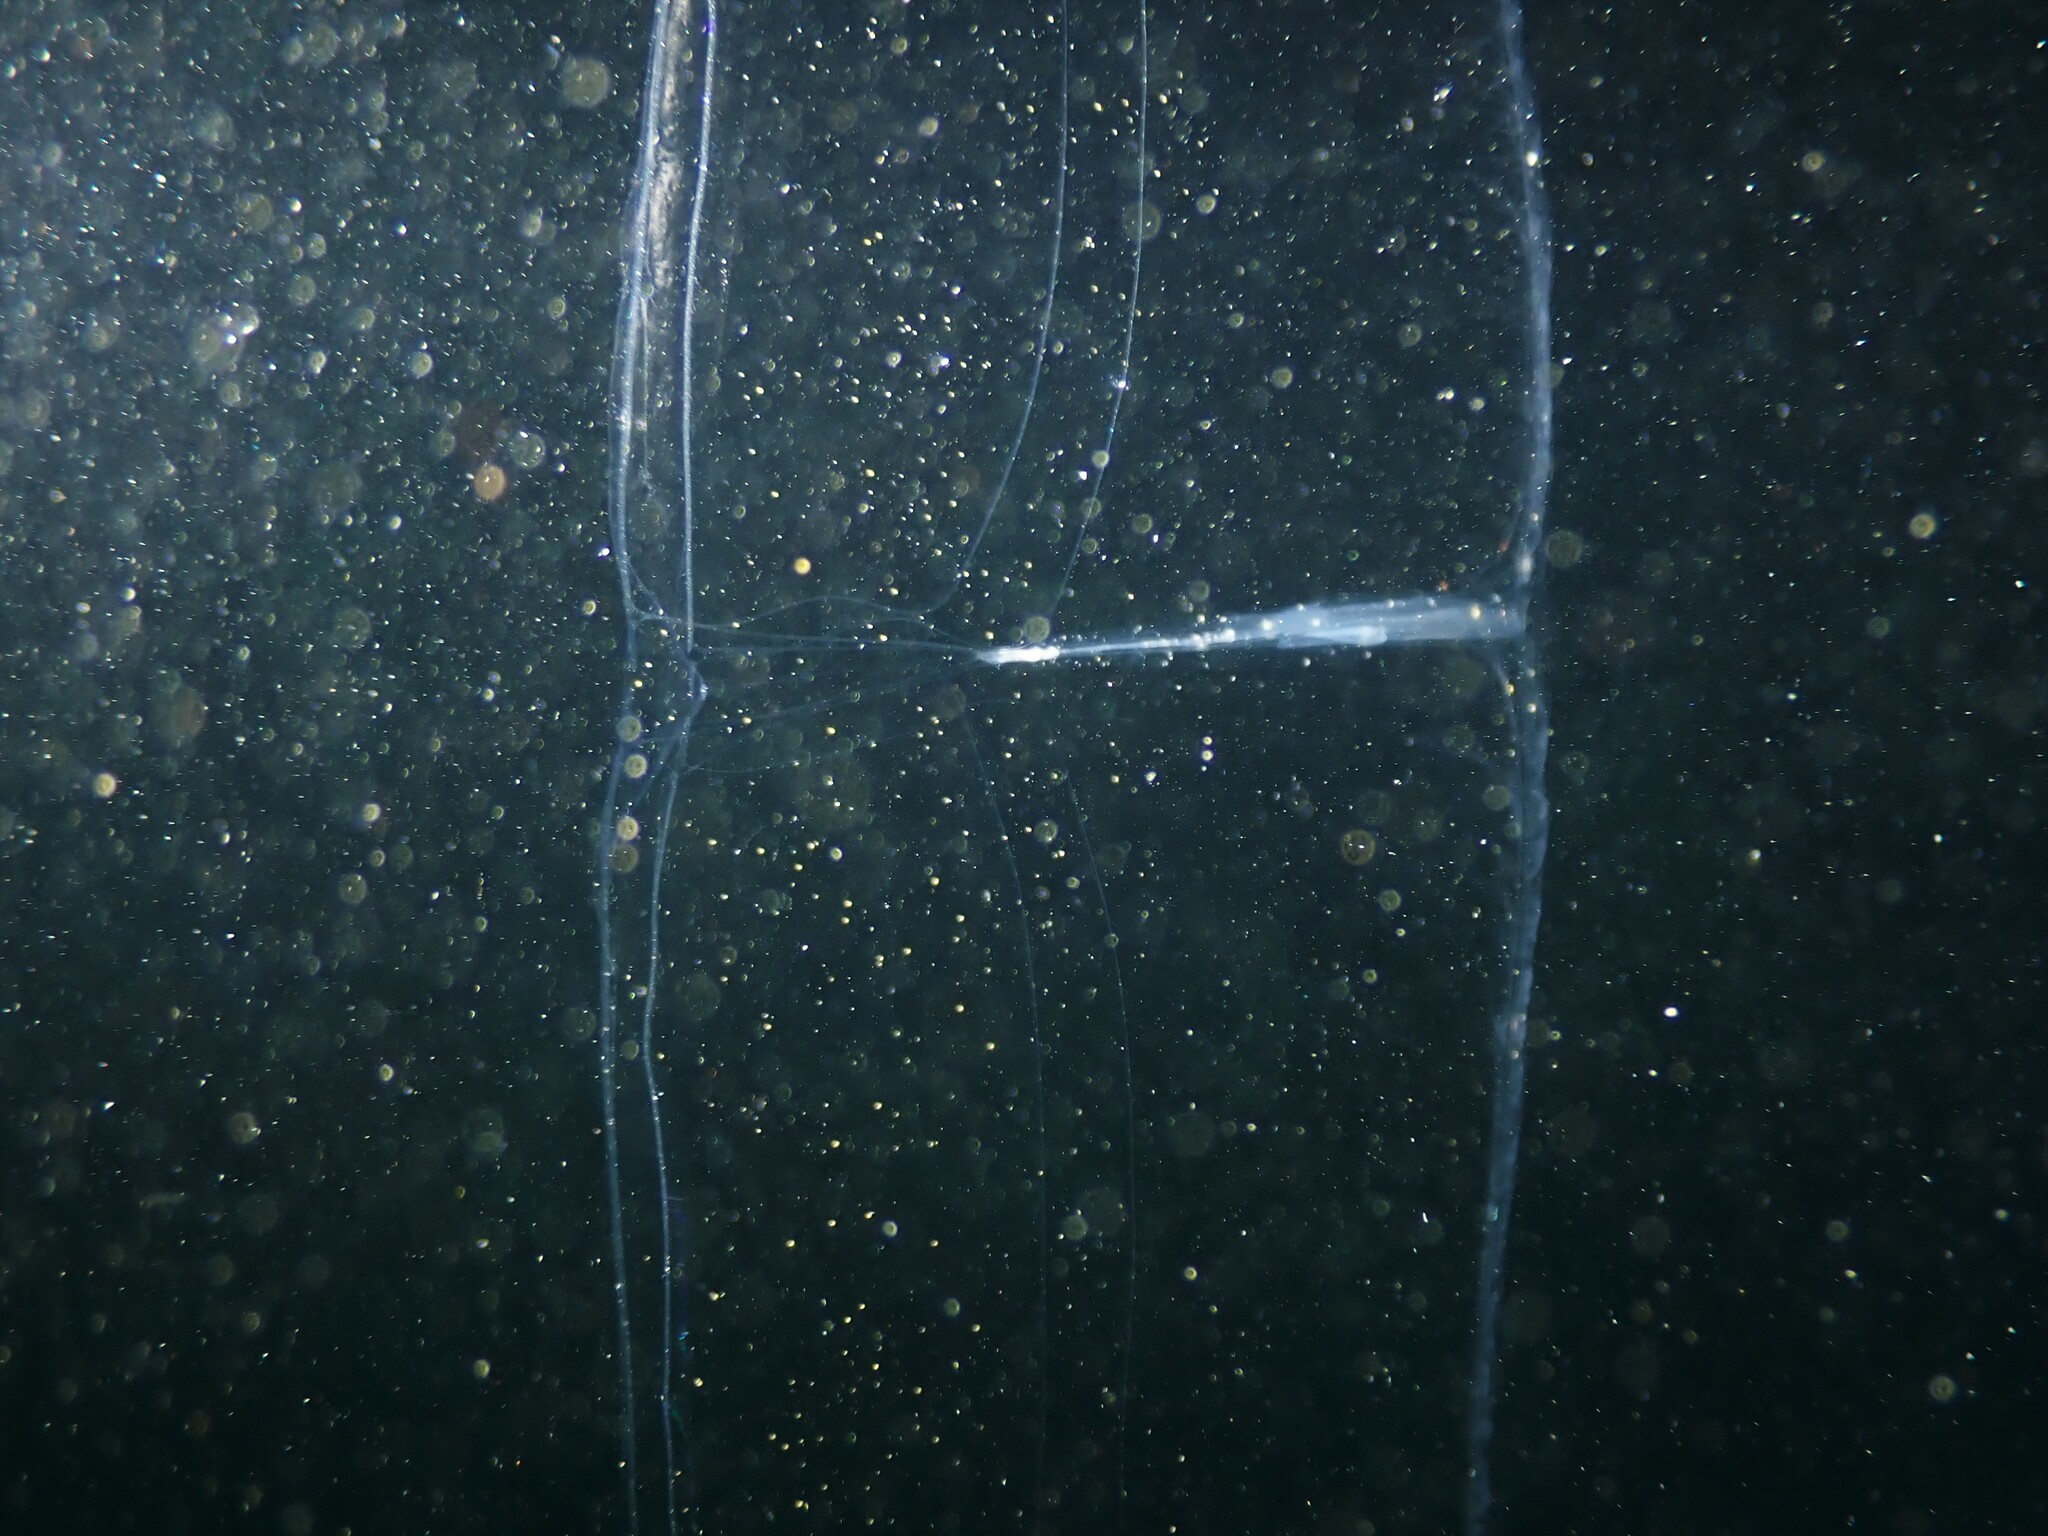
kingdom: Animalia
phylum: Ctenophora
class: Tentaculata
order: Cestida
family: Cestidae
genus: Cestum
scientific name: Cestum veneris
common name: Venus girdle
